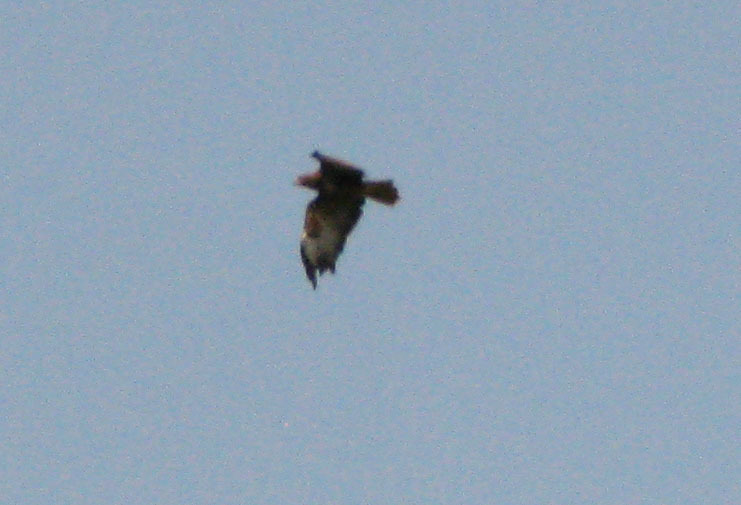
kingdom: Animalia
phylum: Chordata
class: Aves
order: Accipitriformes
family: Accipitridae
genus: Buteo
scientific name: Buteo buteo
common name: Common buzzard
